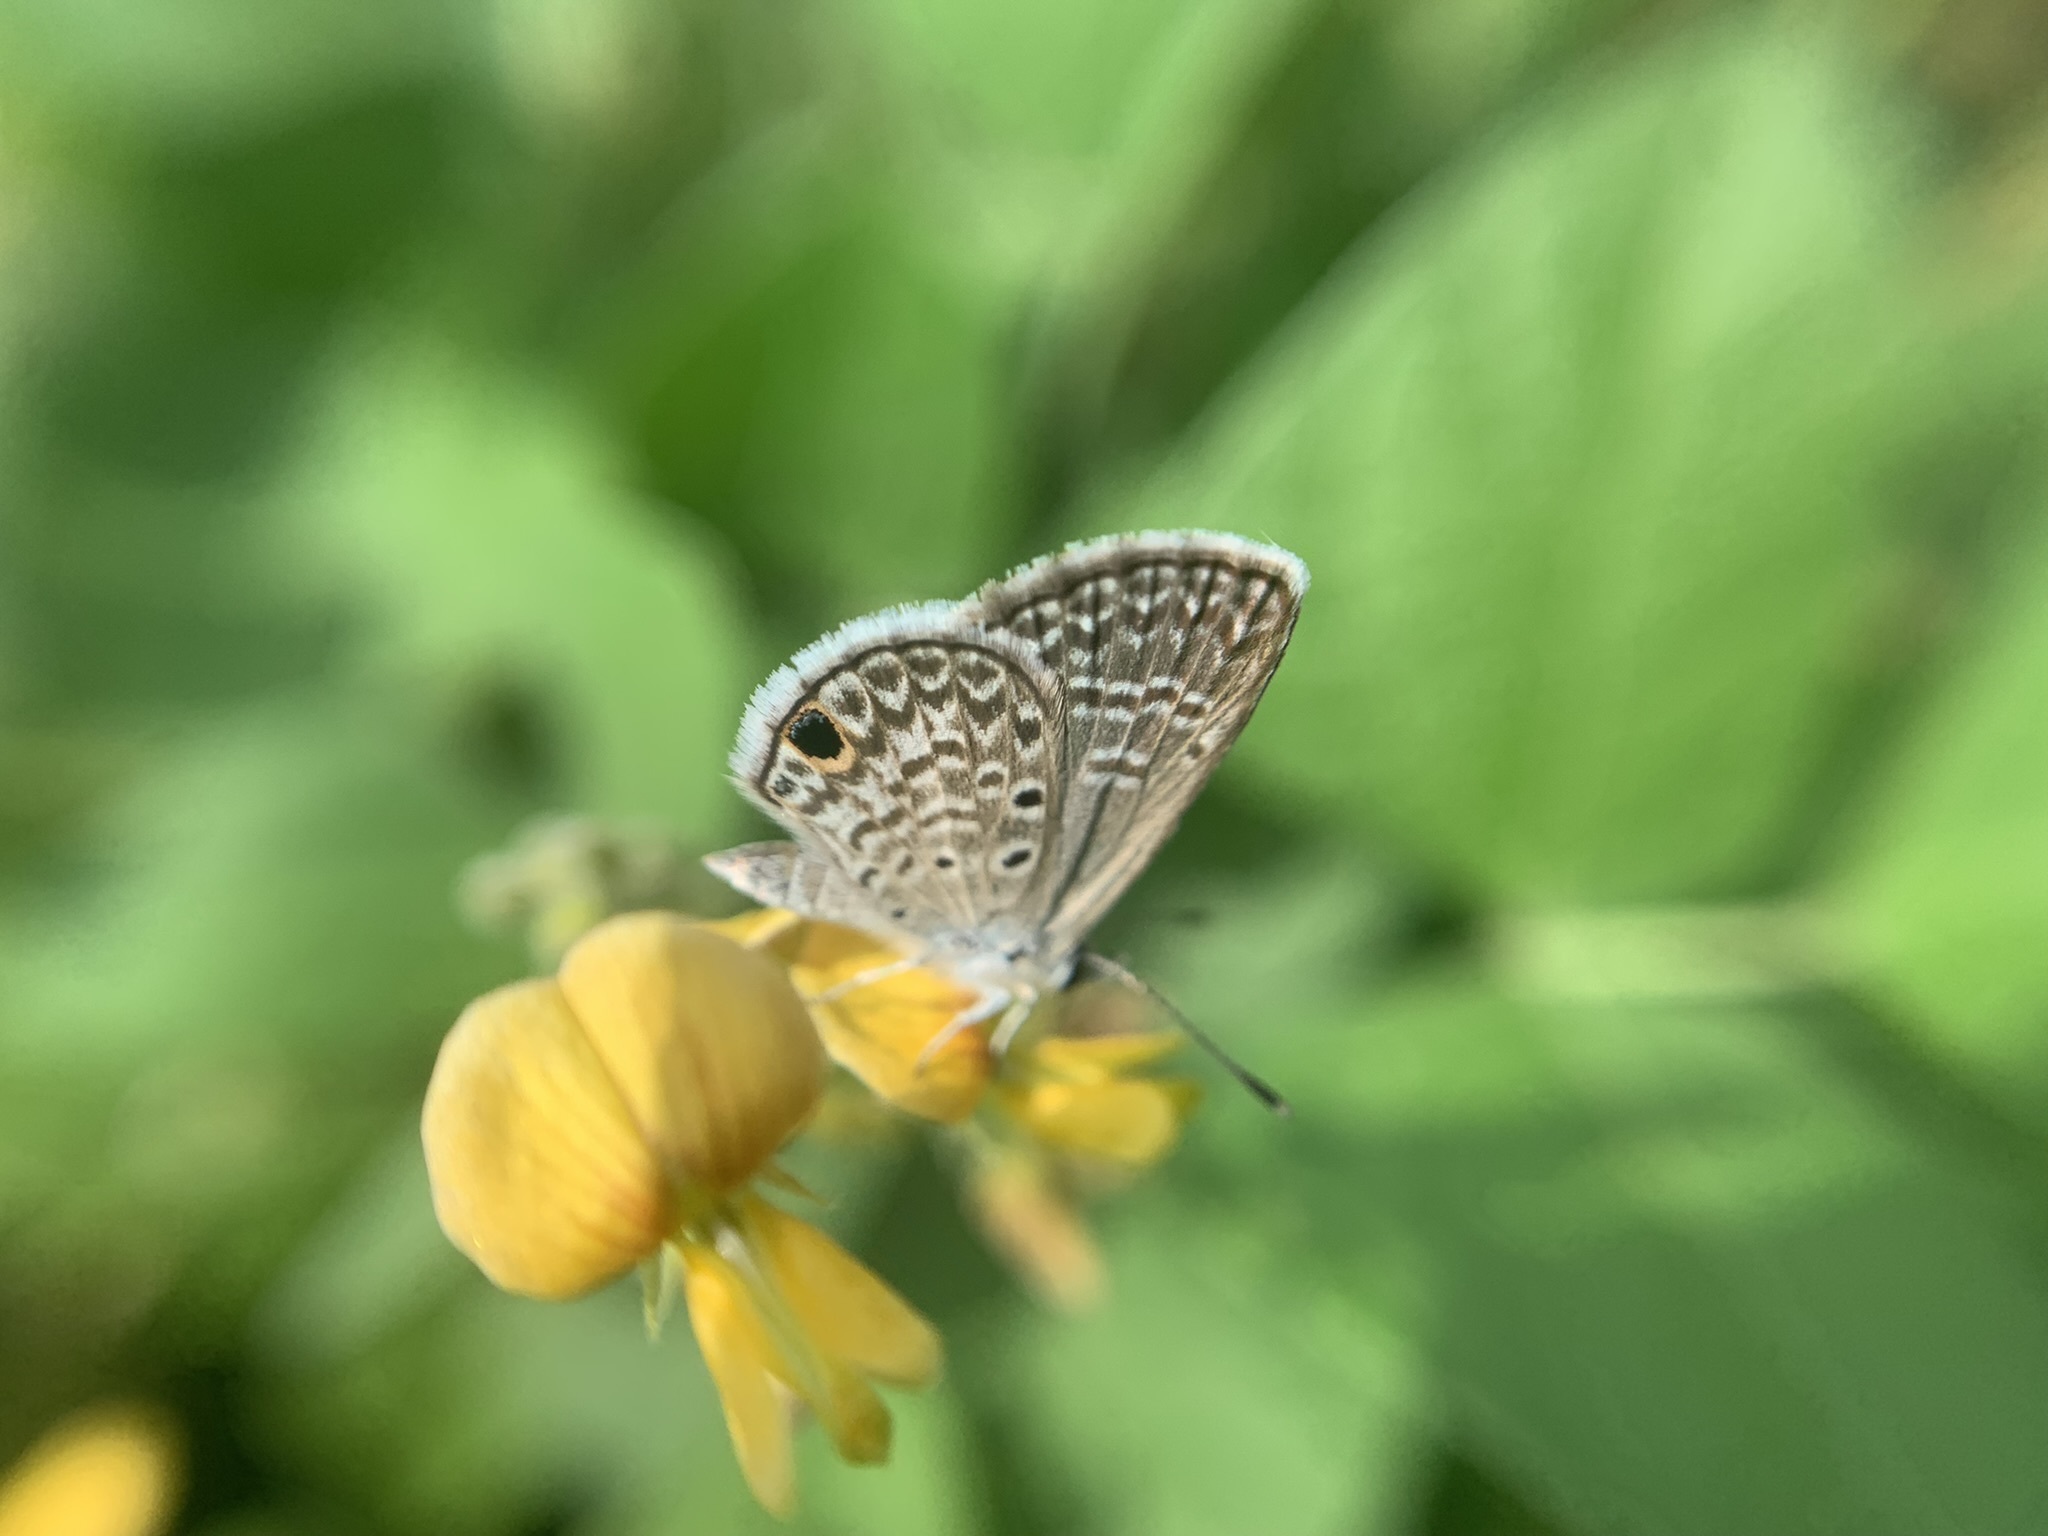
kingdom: Animalia
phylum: Arthropoda
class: Insecta
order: Lepidoptera
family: Lycaenidae
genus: Hemiargus
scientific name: Hemiargus hanno
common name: Common blue
